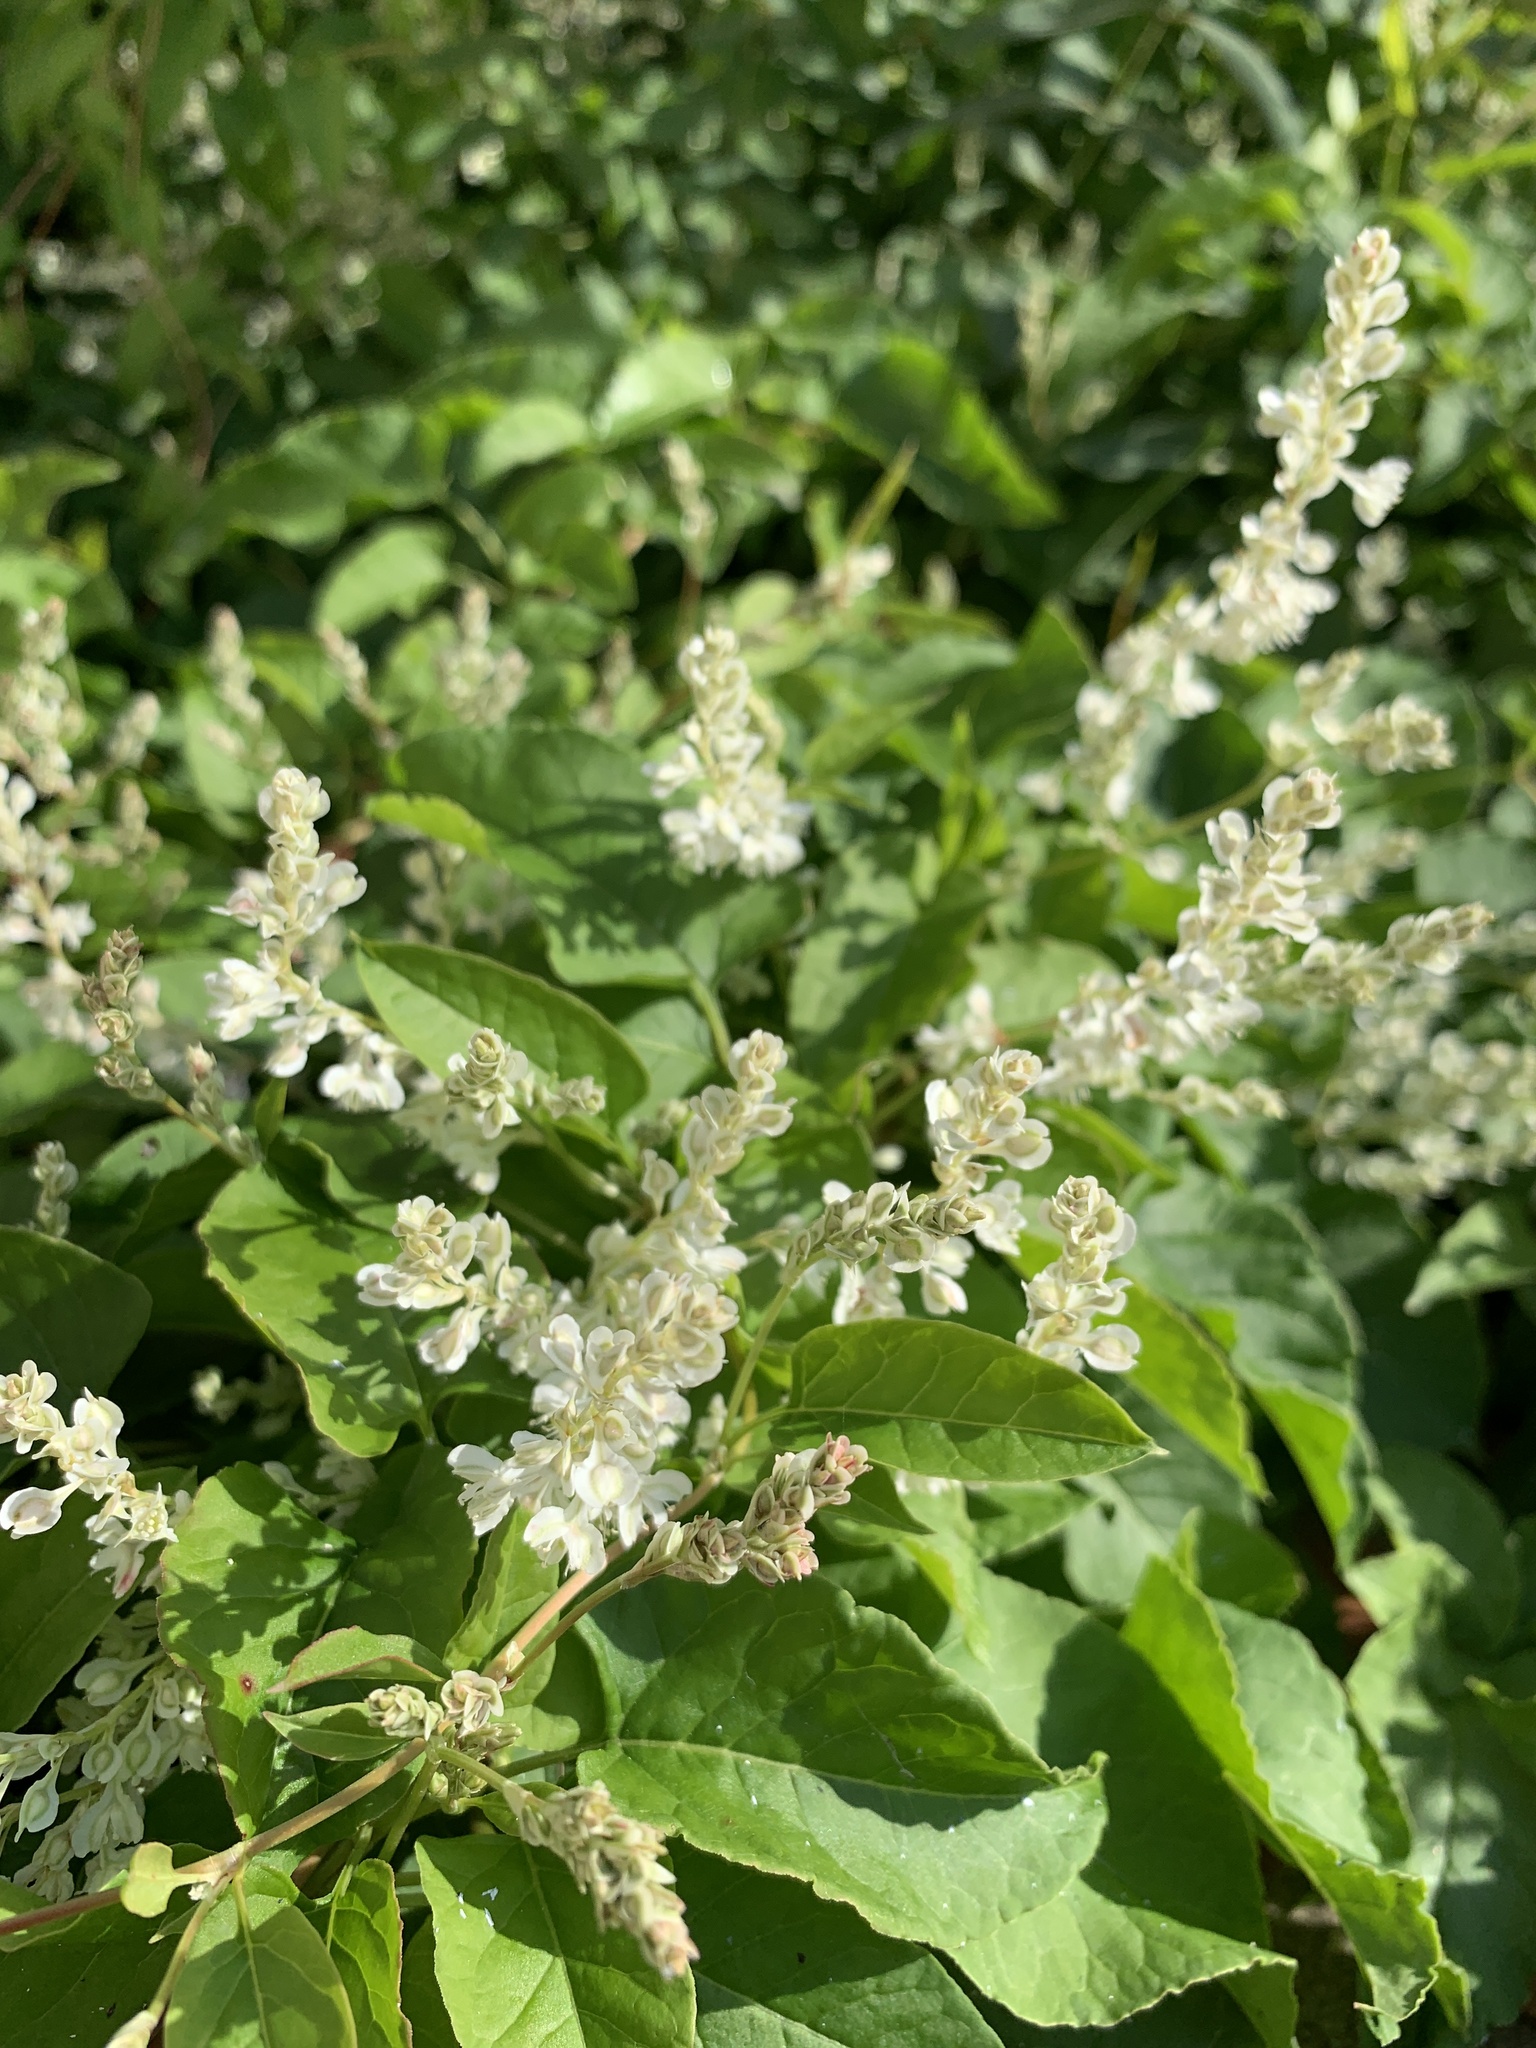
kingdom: Plantae
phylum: Tracheophyta
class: Magnoliopsida
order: Caryophyllales
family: Polygonaceae
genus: Fallopia
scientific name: Fallopia baldschuanica
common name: Russian-vine
